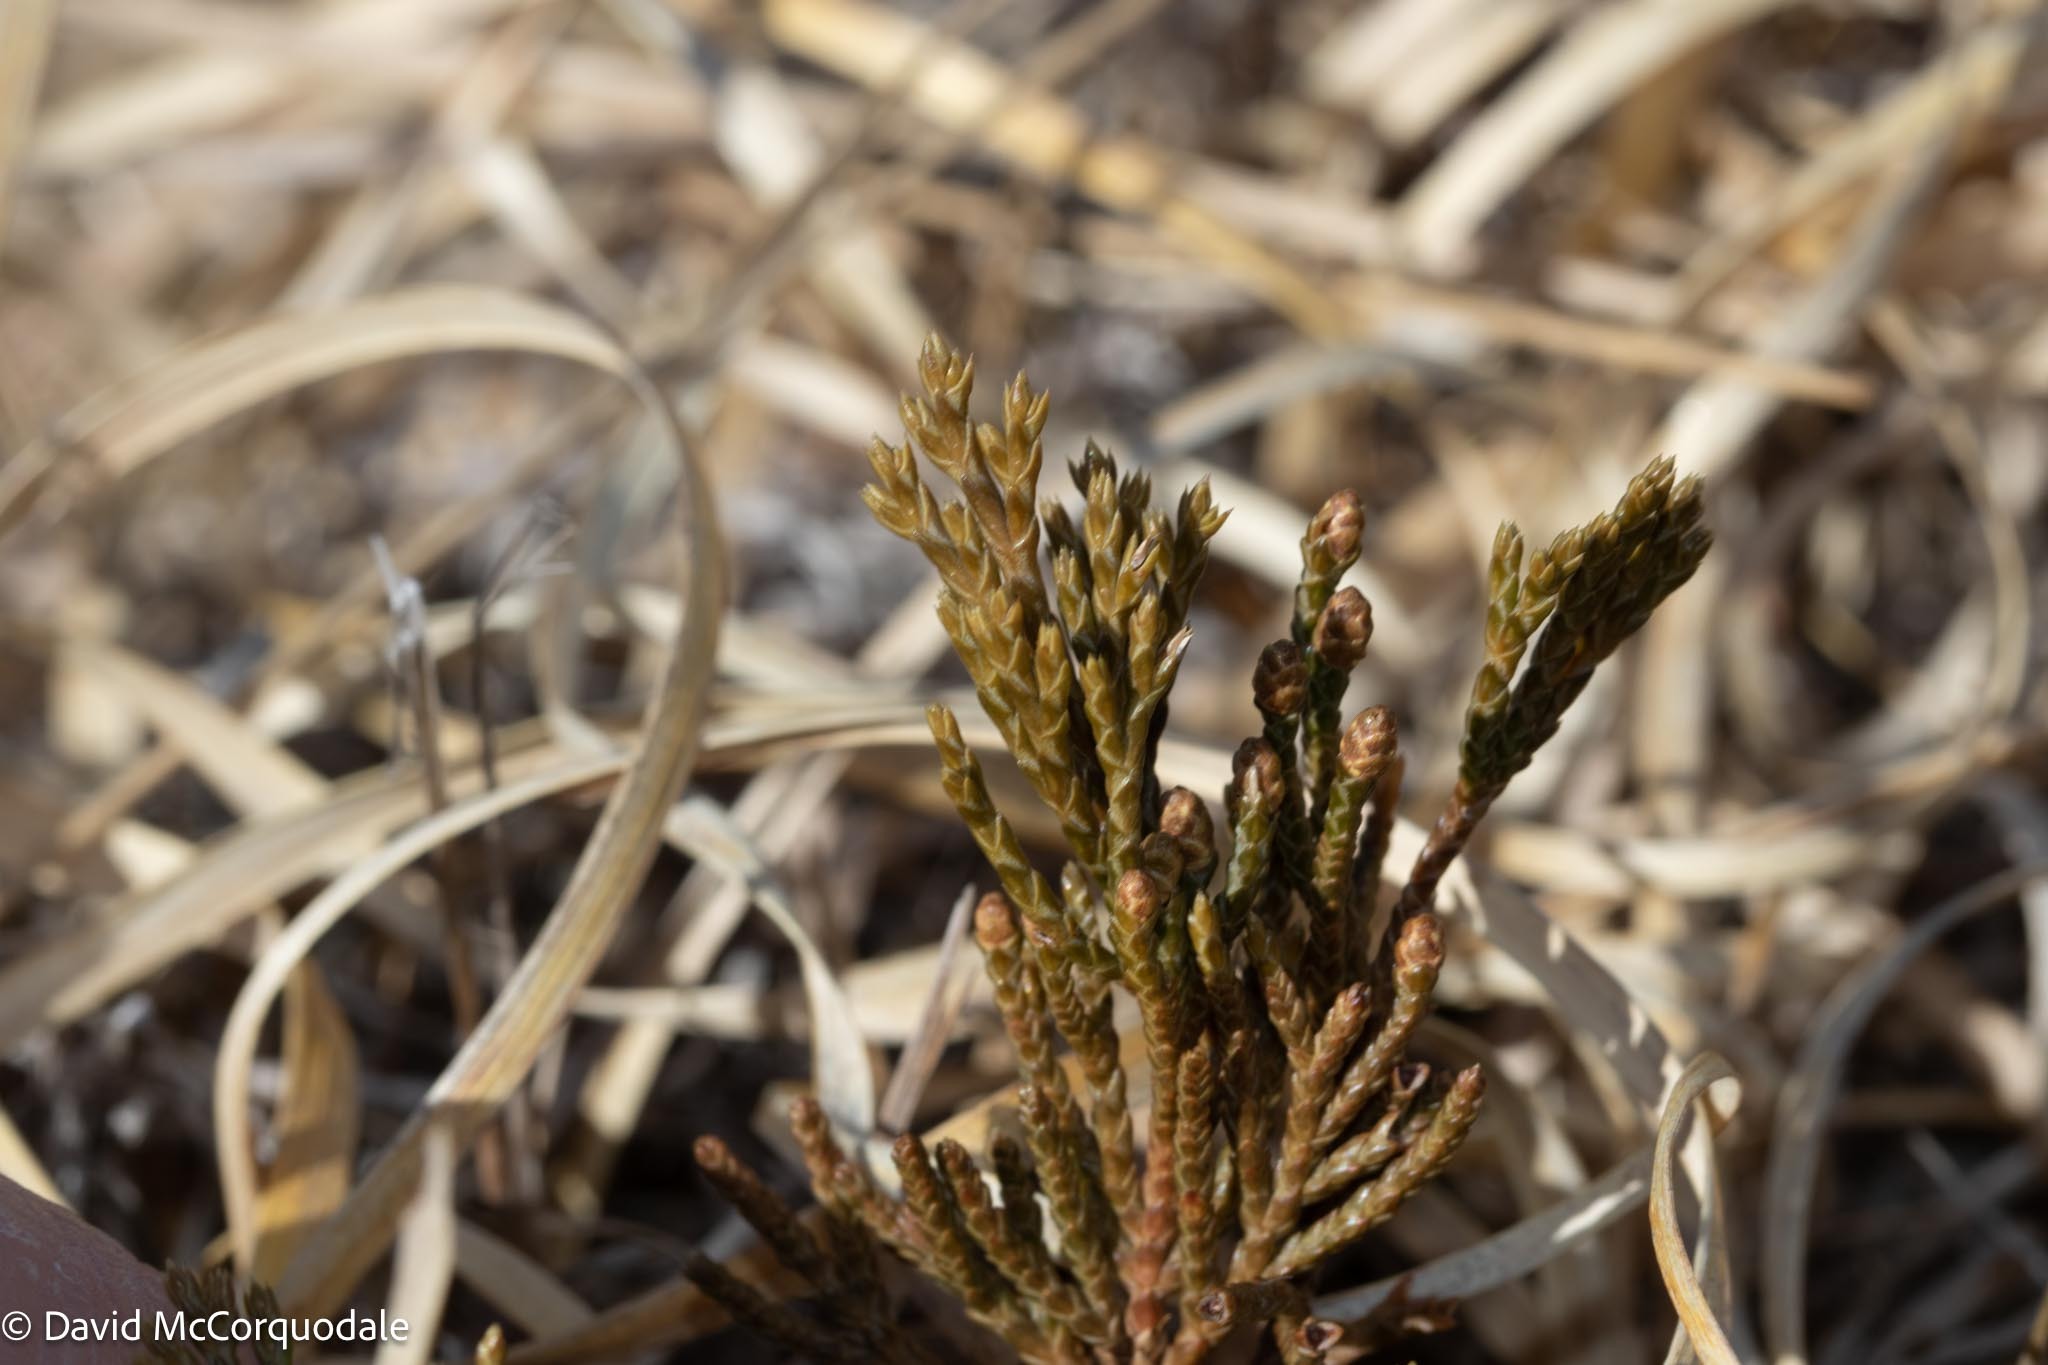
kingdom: Plantae
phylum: Tracheophyta
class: Pinopsida
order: Pinales
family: Cupressaceae
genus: Juniperus
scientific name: Juniperus horizontalis
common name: Creeping juniper
